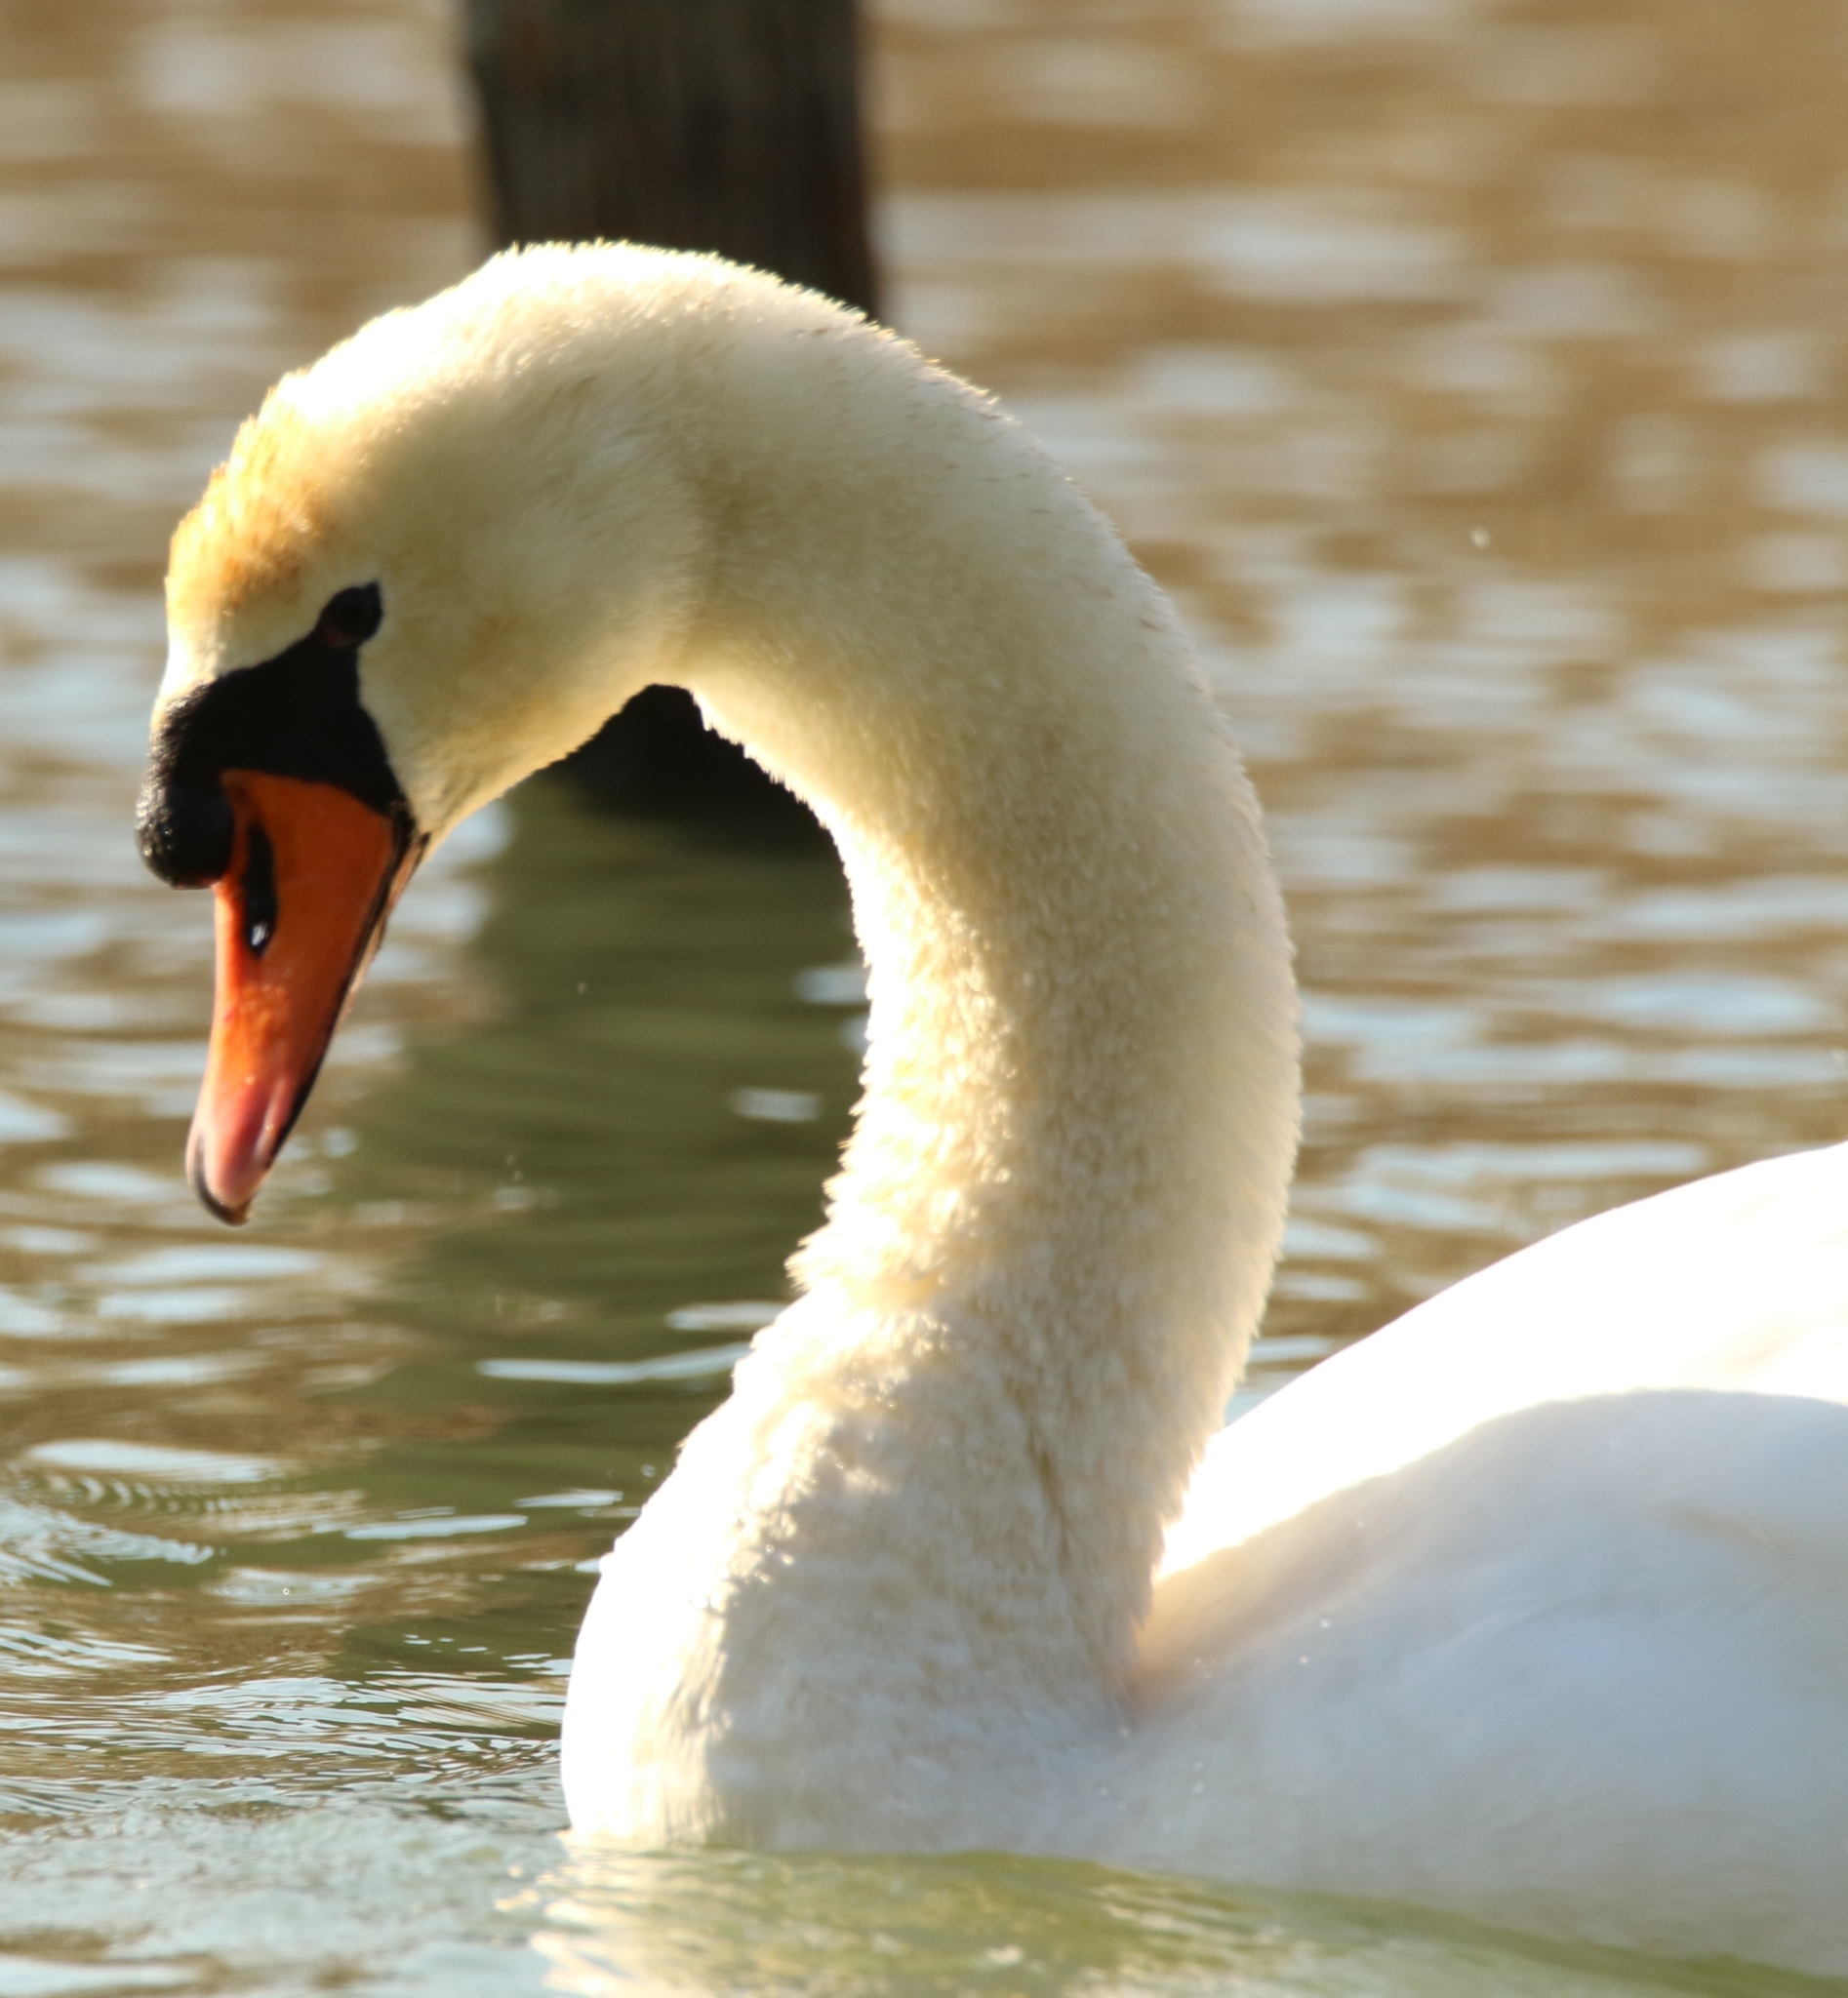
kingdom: Animalia
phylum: Chordata
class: Aves
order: Anseriformes
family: Anatidae
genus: Cygnus
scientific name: Cygnus olor
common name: Mute swan
